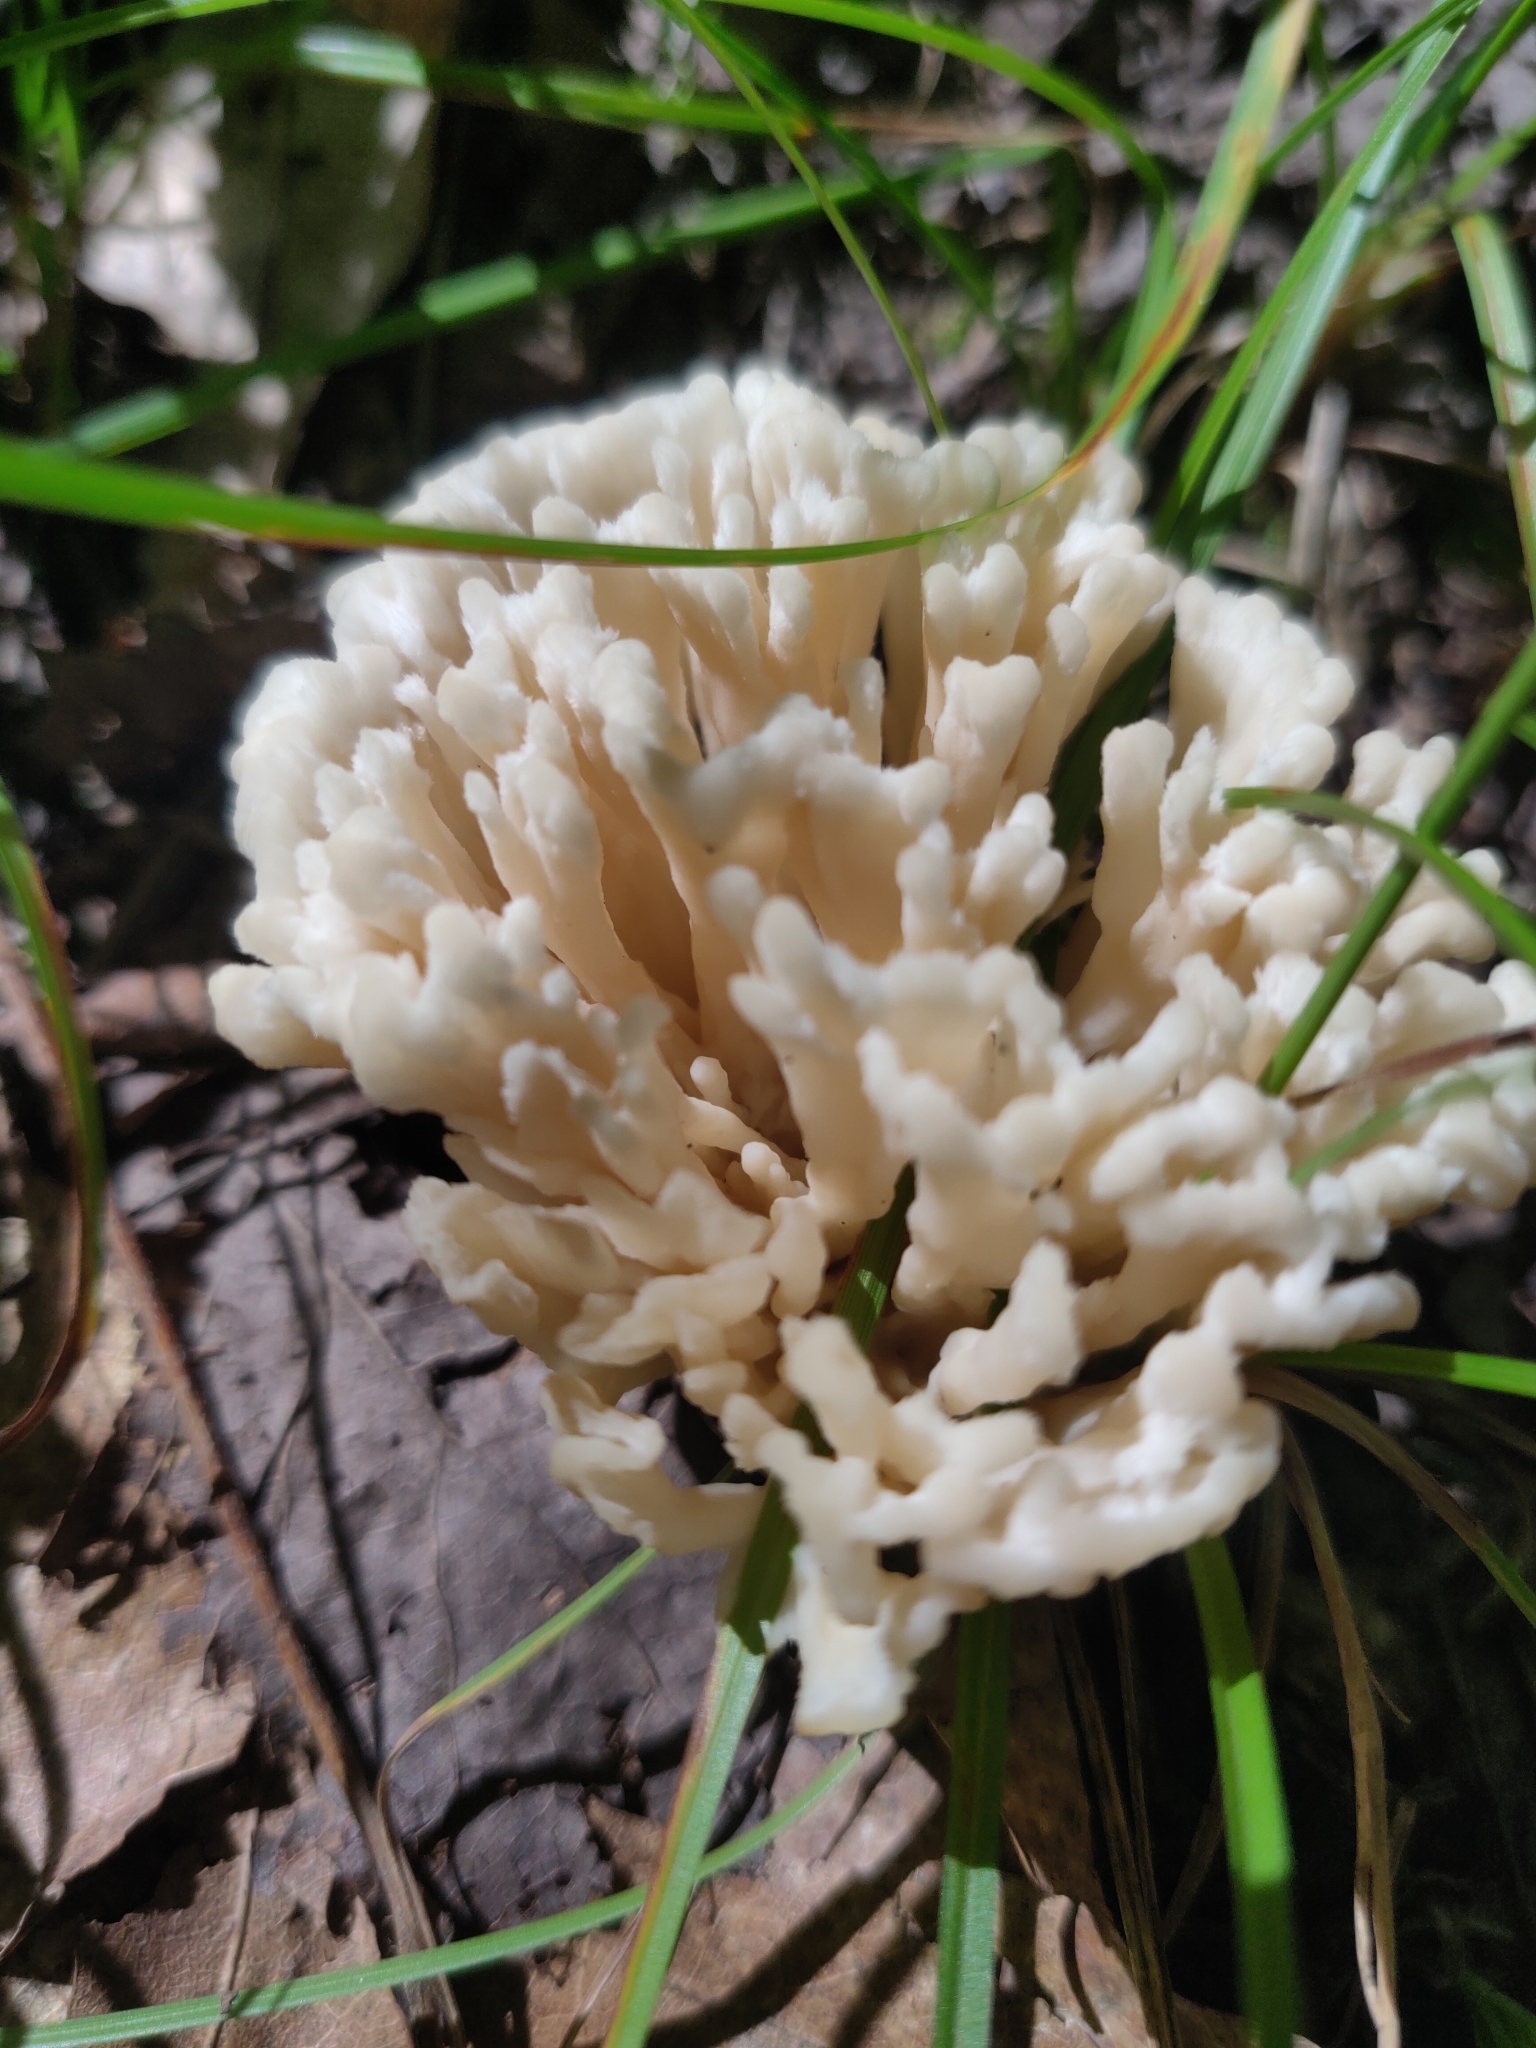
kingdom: Fungi
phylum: Basidiomycota
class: Agaricomycetes
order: Sebacinales
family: Sebacinaceae
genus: Sebacina
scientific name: Sebacina schweinitzii
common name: Jellied false coral fungus
